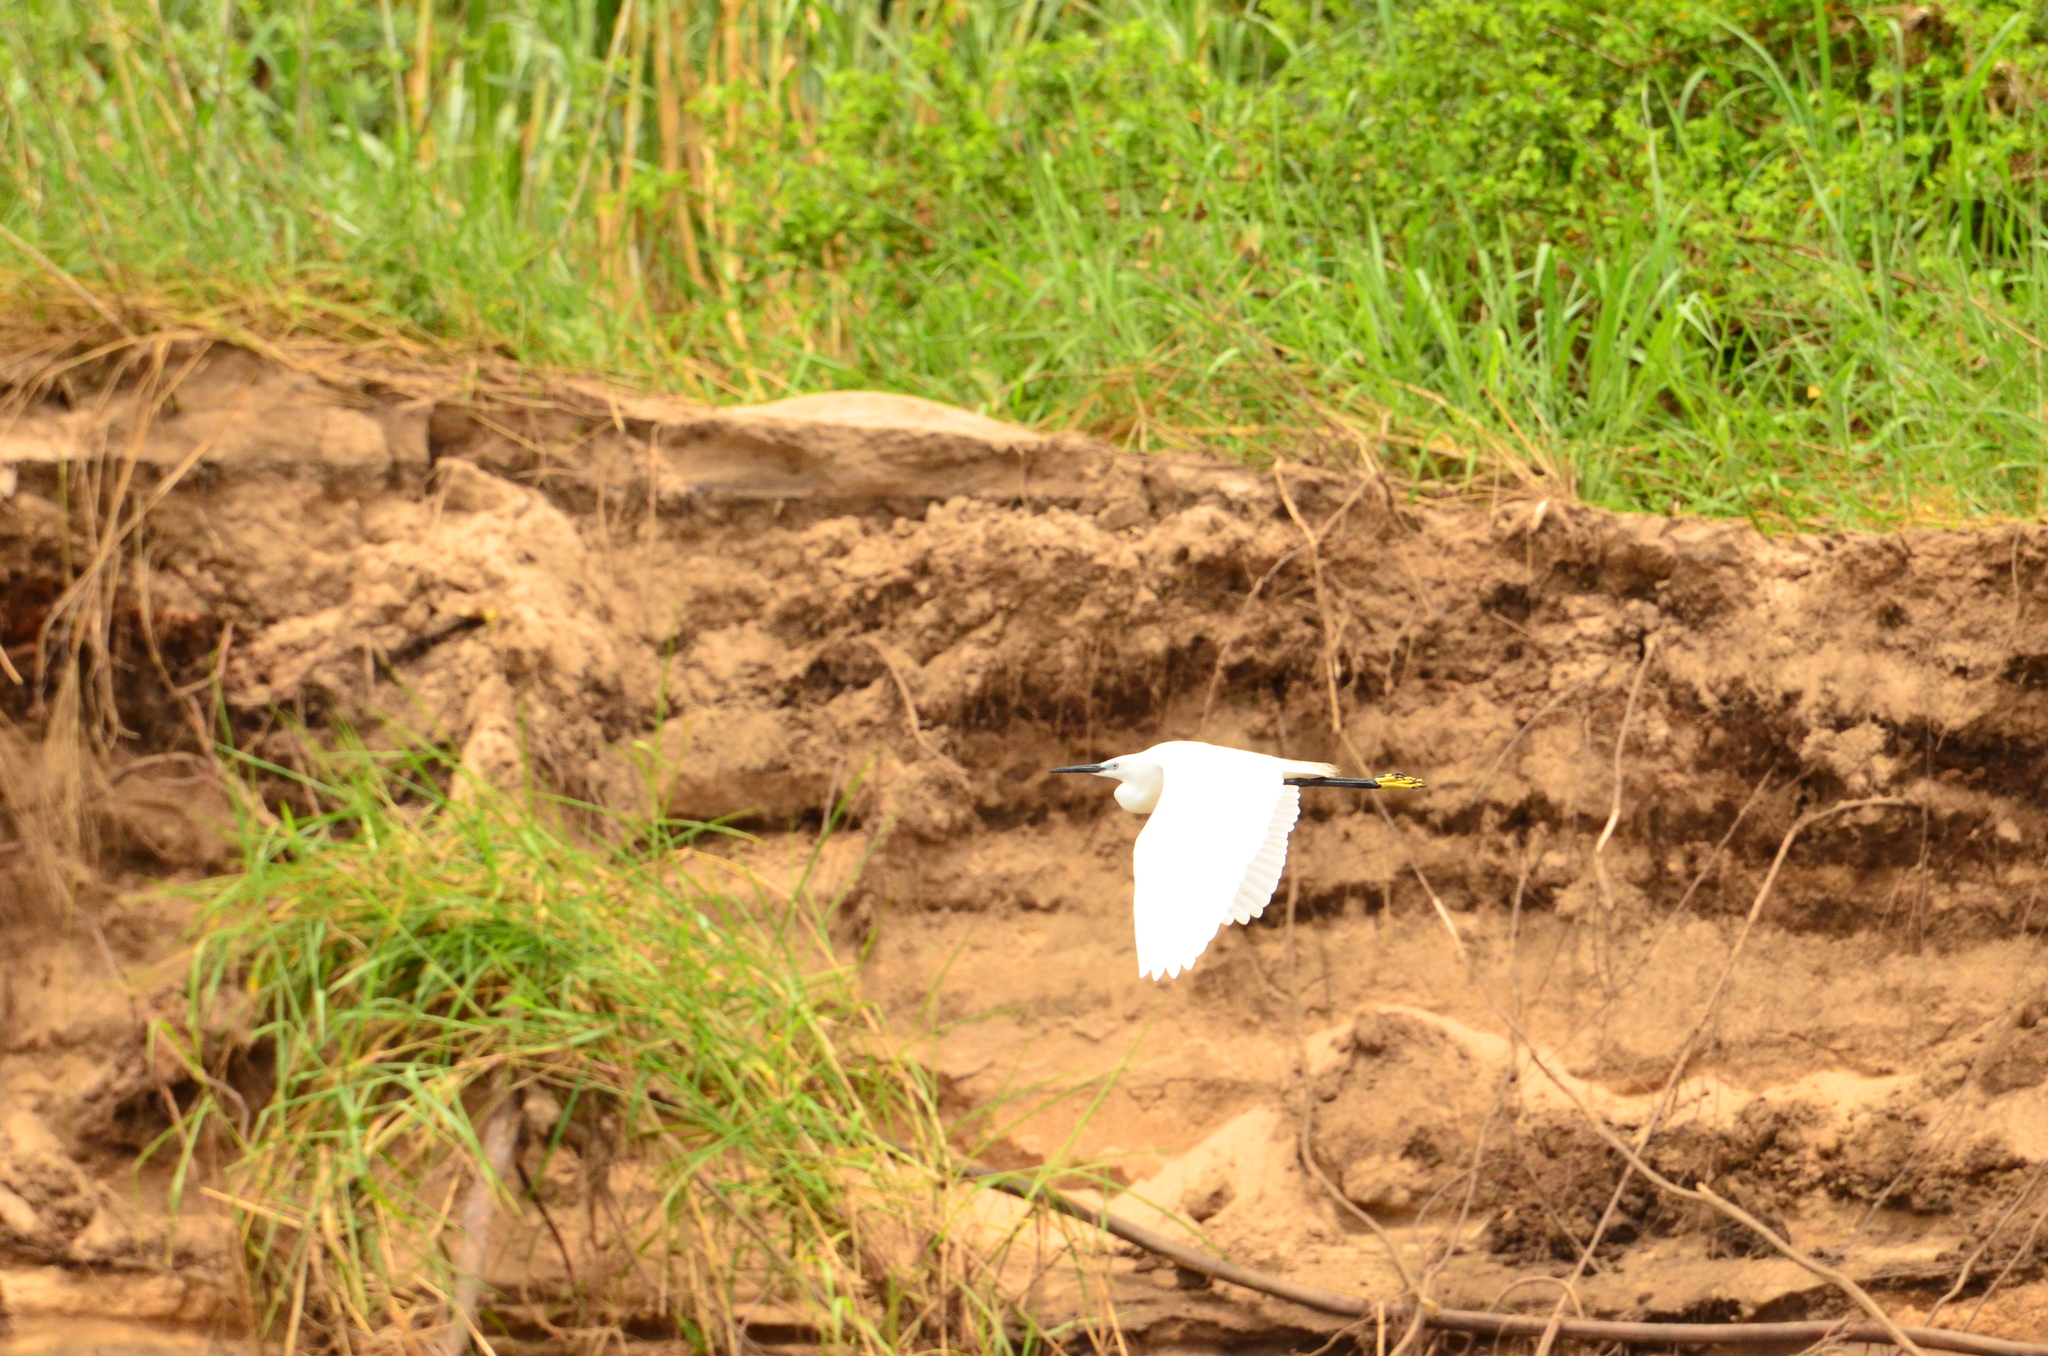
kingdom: Animalia
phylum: Chordata
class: Aves
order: Pelecaniformes
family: Ardeidae
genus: Egretta
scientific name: Egretta garzetta
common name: Little egret
